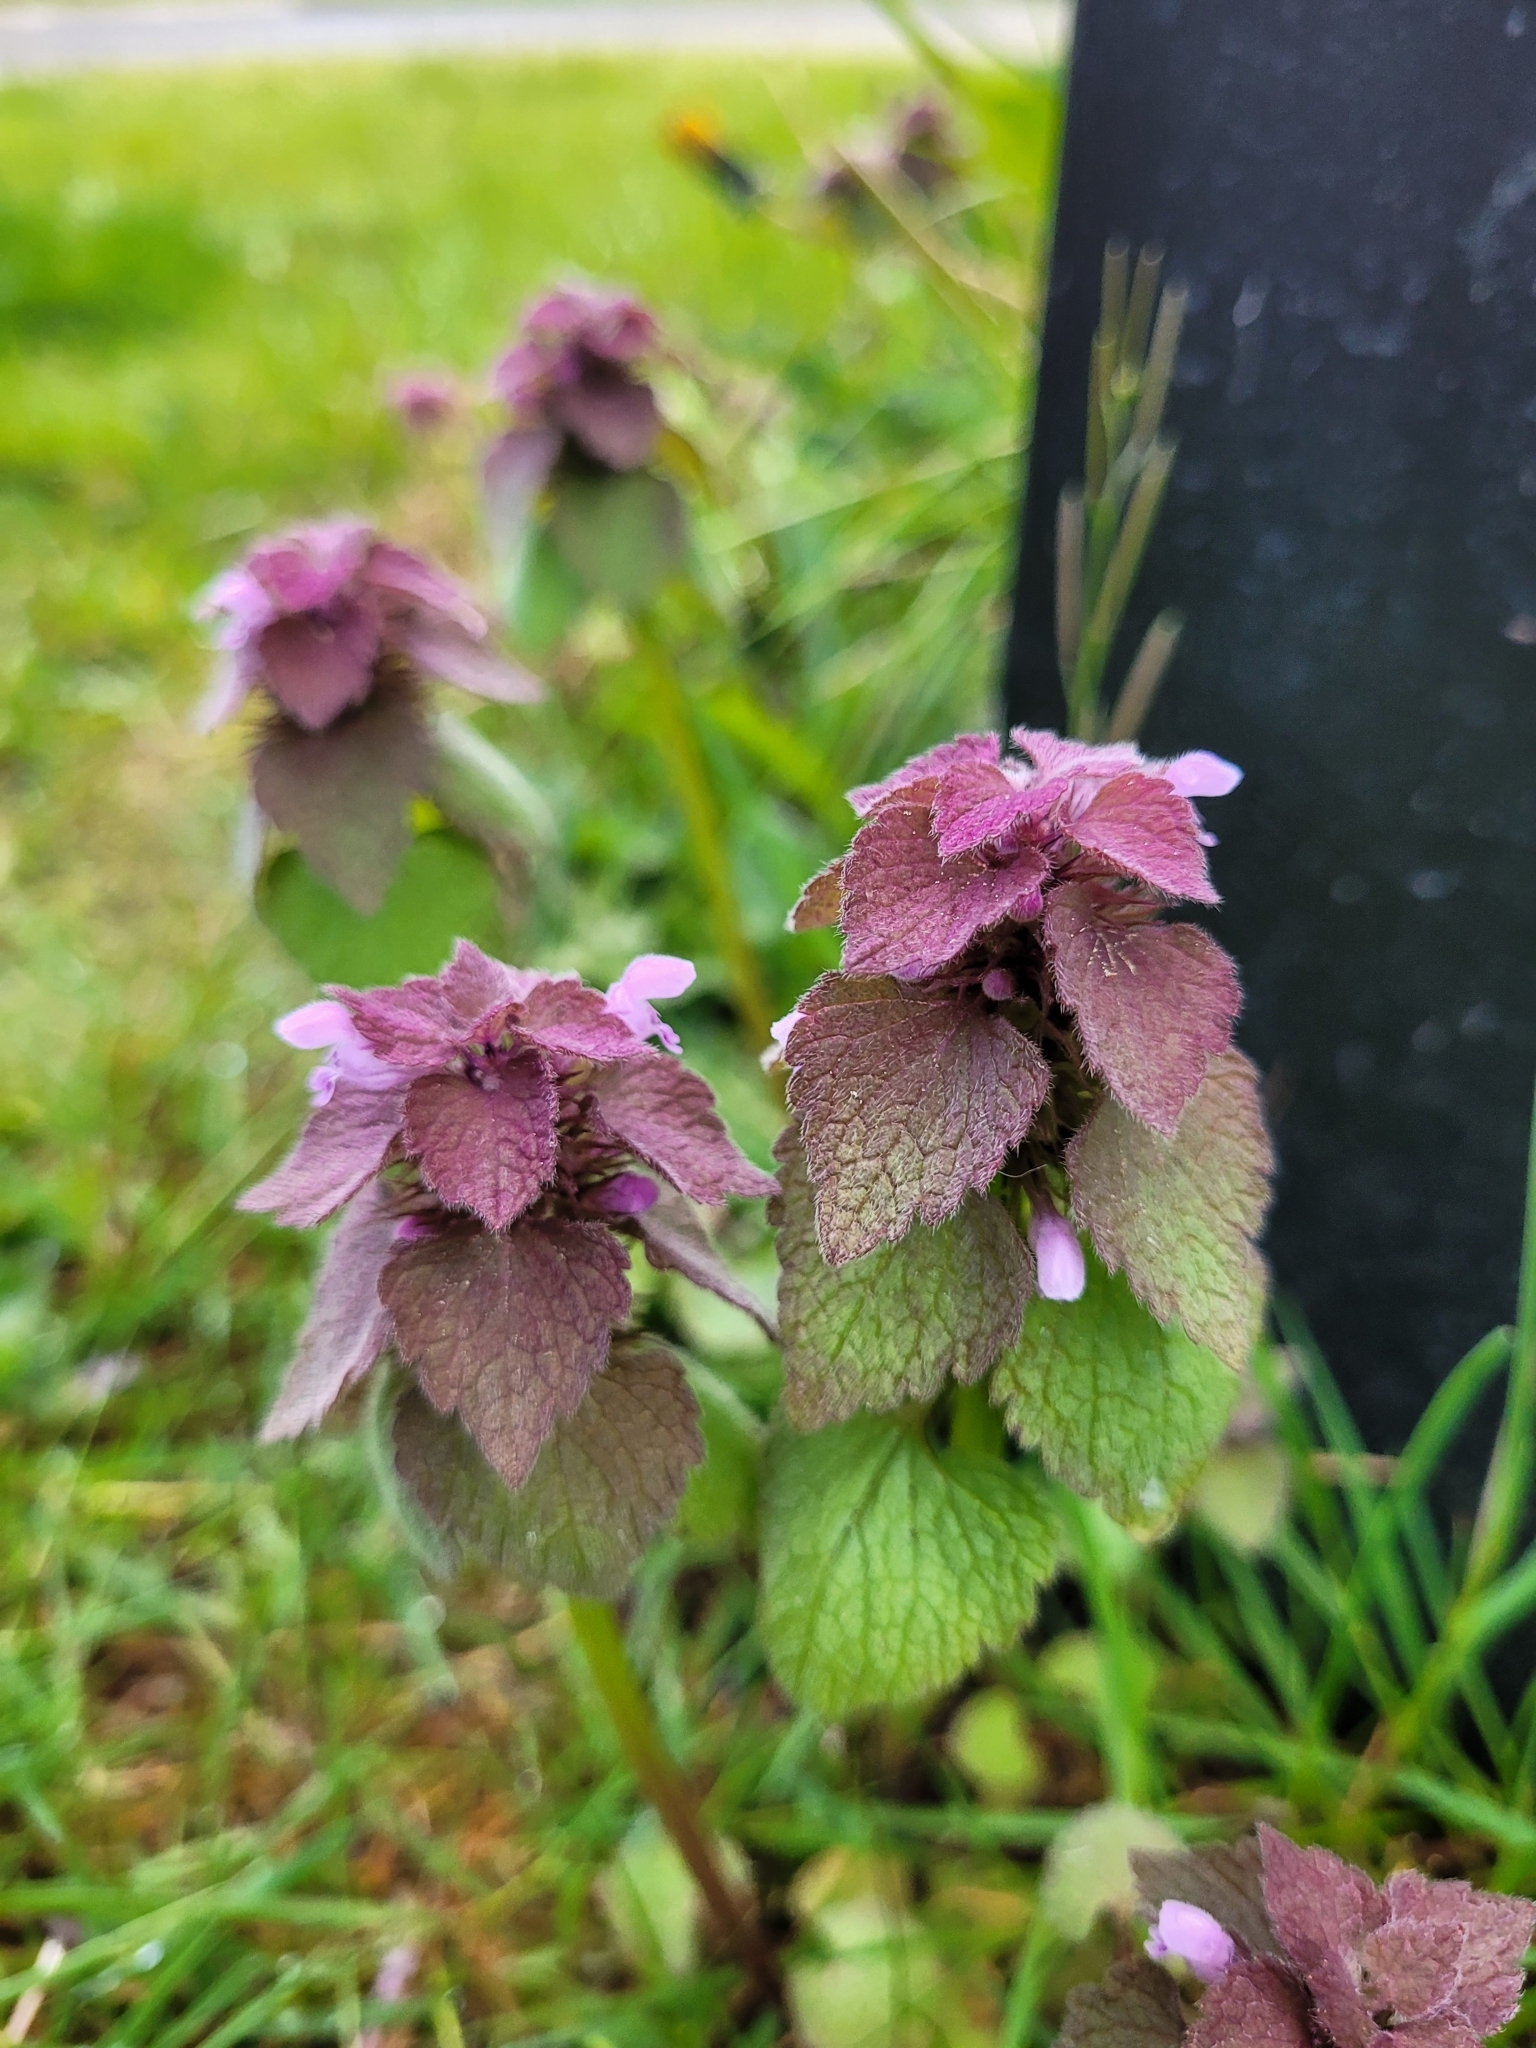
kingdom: Plantae
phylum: Tracheophyta
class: Magnoliopsida
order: Lamiales
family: Lamiaceae
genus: Lamium
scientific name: Lamium purpureum
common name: Red dead-nettle
